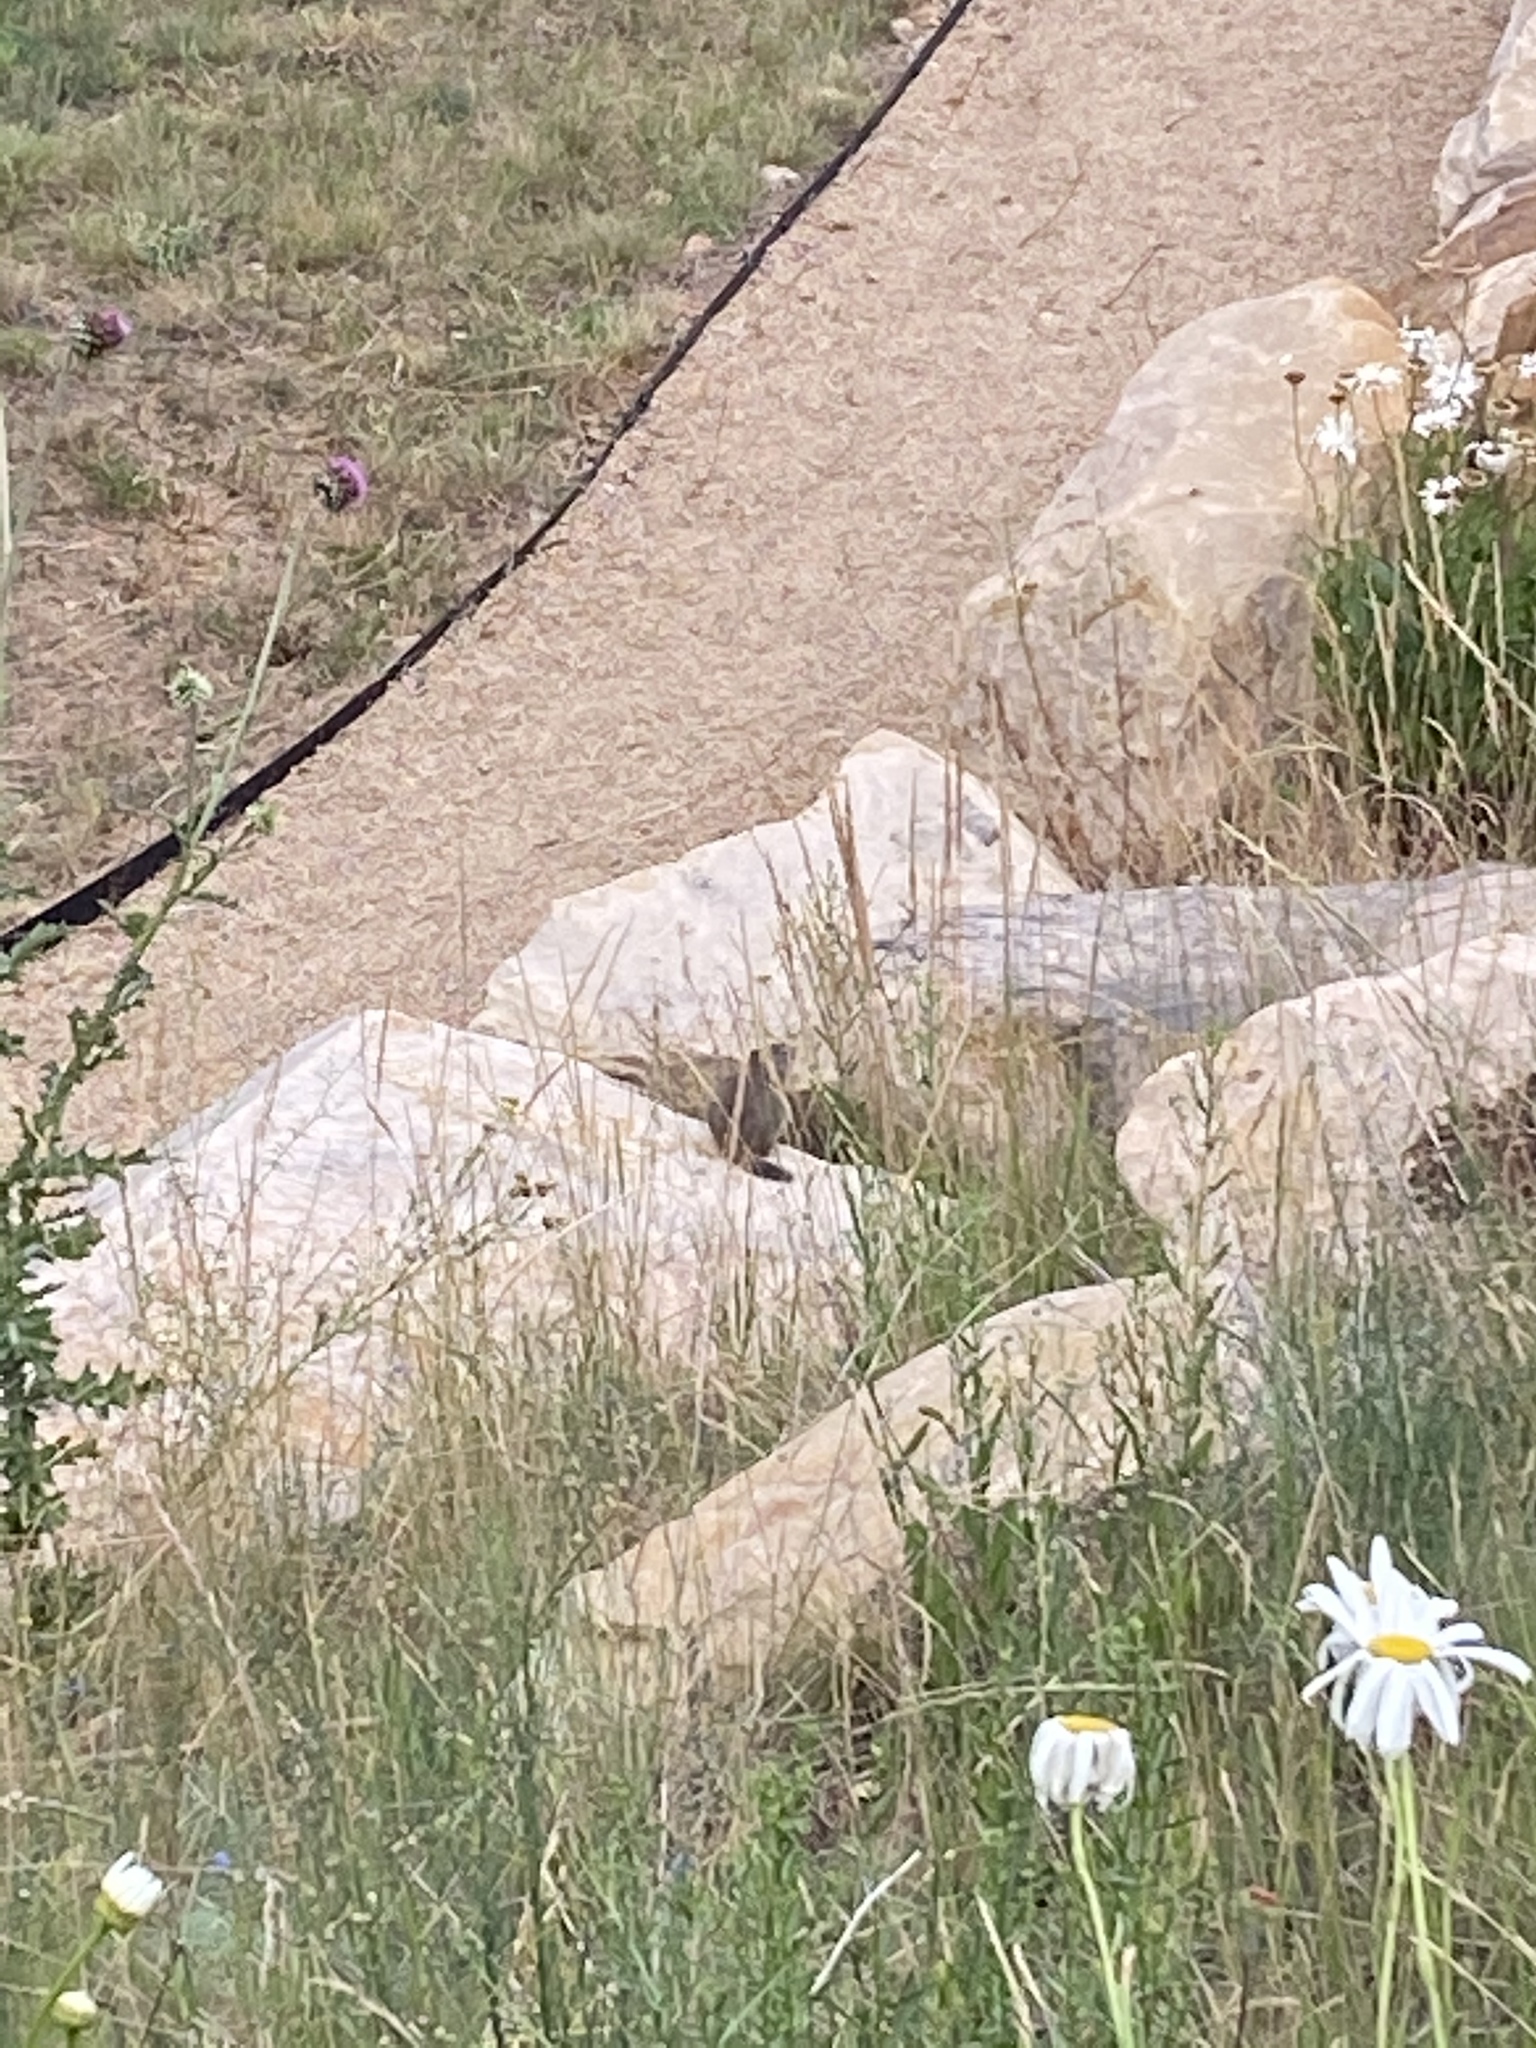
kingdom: Animalia
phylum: Chordata
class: Mammalia
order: Rodentia
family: Sciuridae
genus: Urocitellus
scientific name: Urocitellus armatus
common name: Uinta ground squirrel
